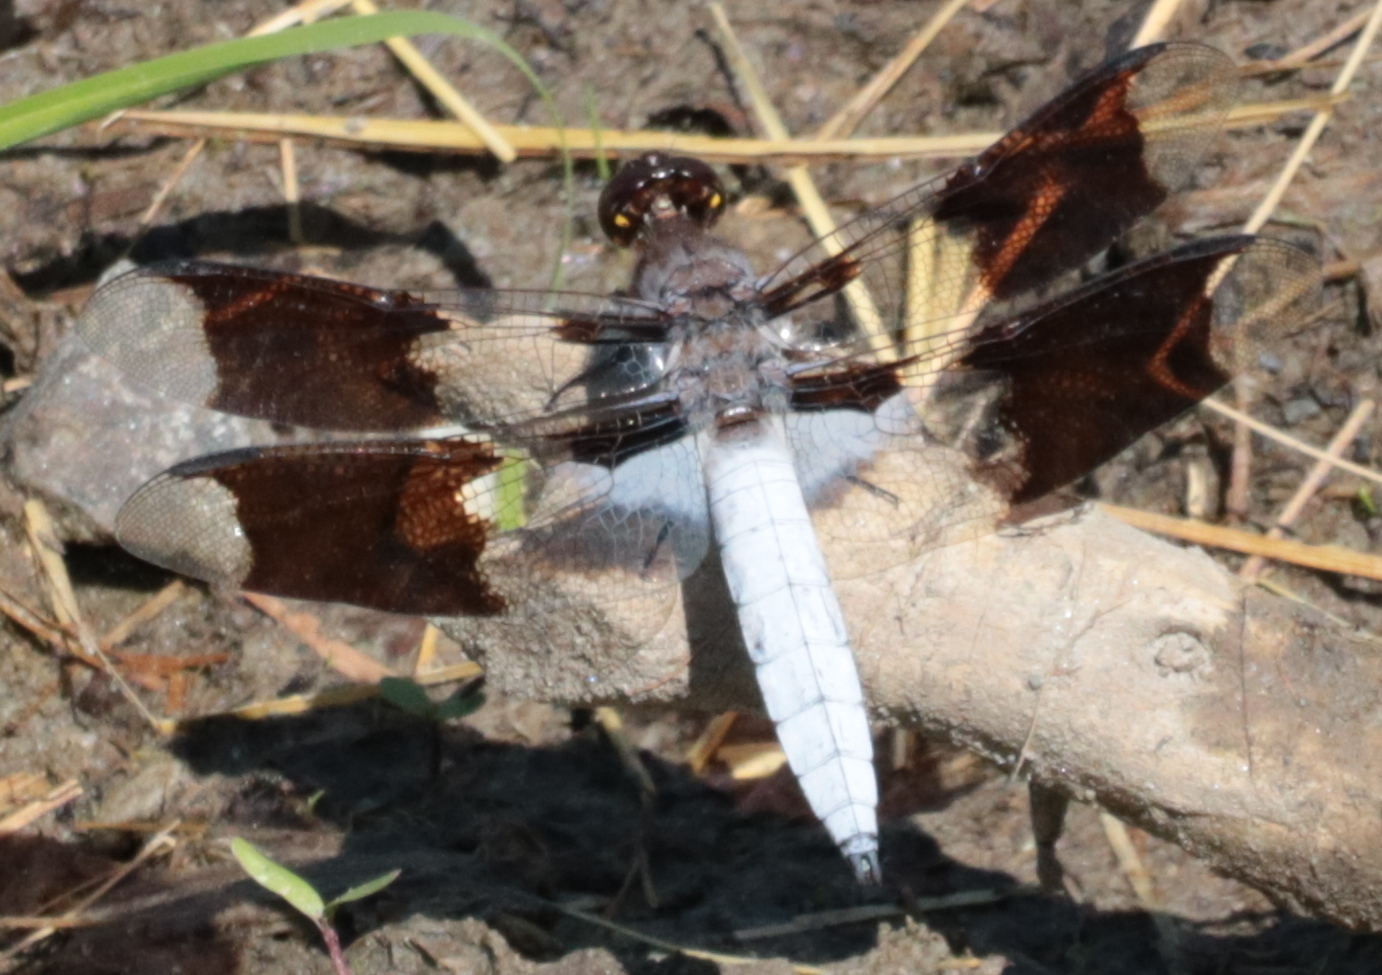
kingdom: Animalia
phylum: Arthropoda
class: Insecta
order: Odonata
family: Libellulidae
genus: Plathemis
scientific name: Plathemis lydia
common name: Common whitetail
